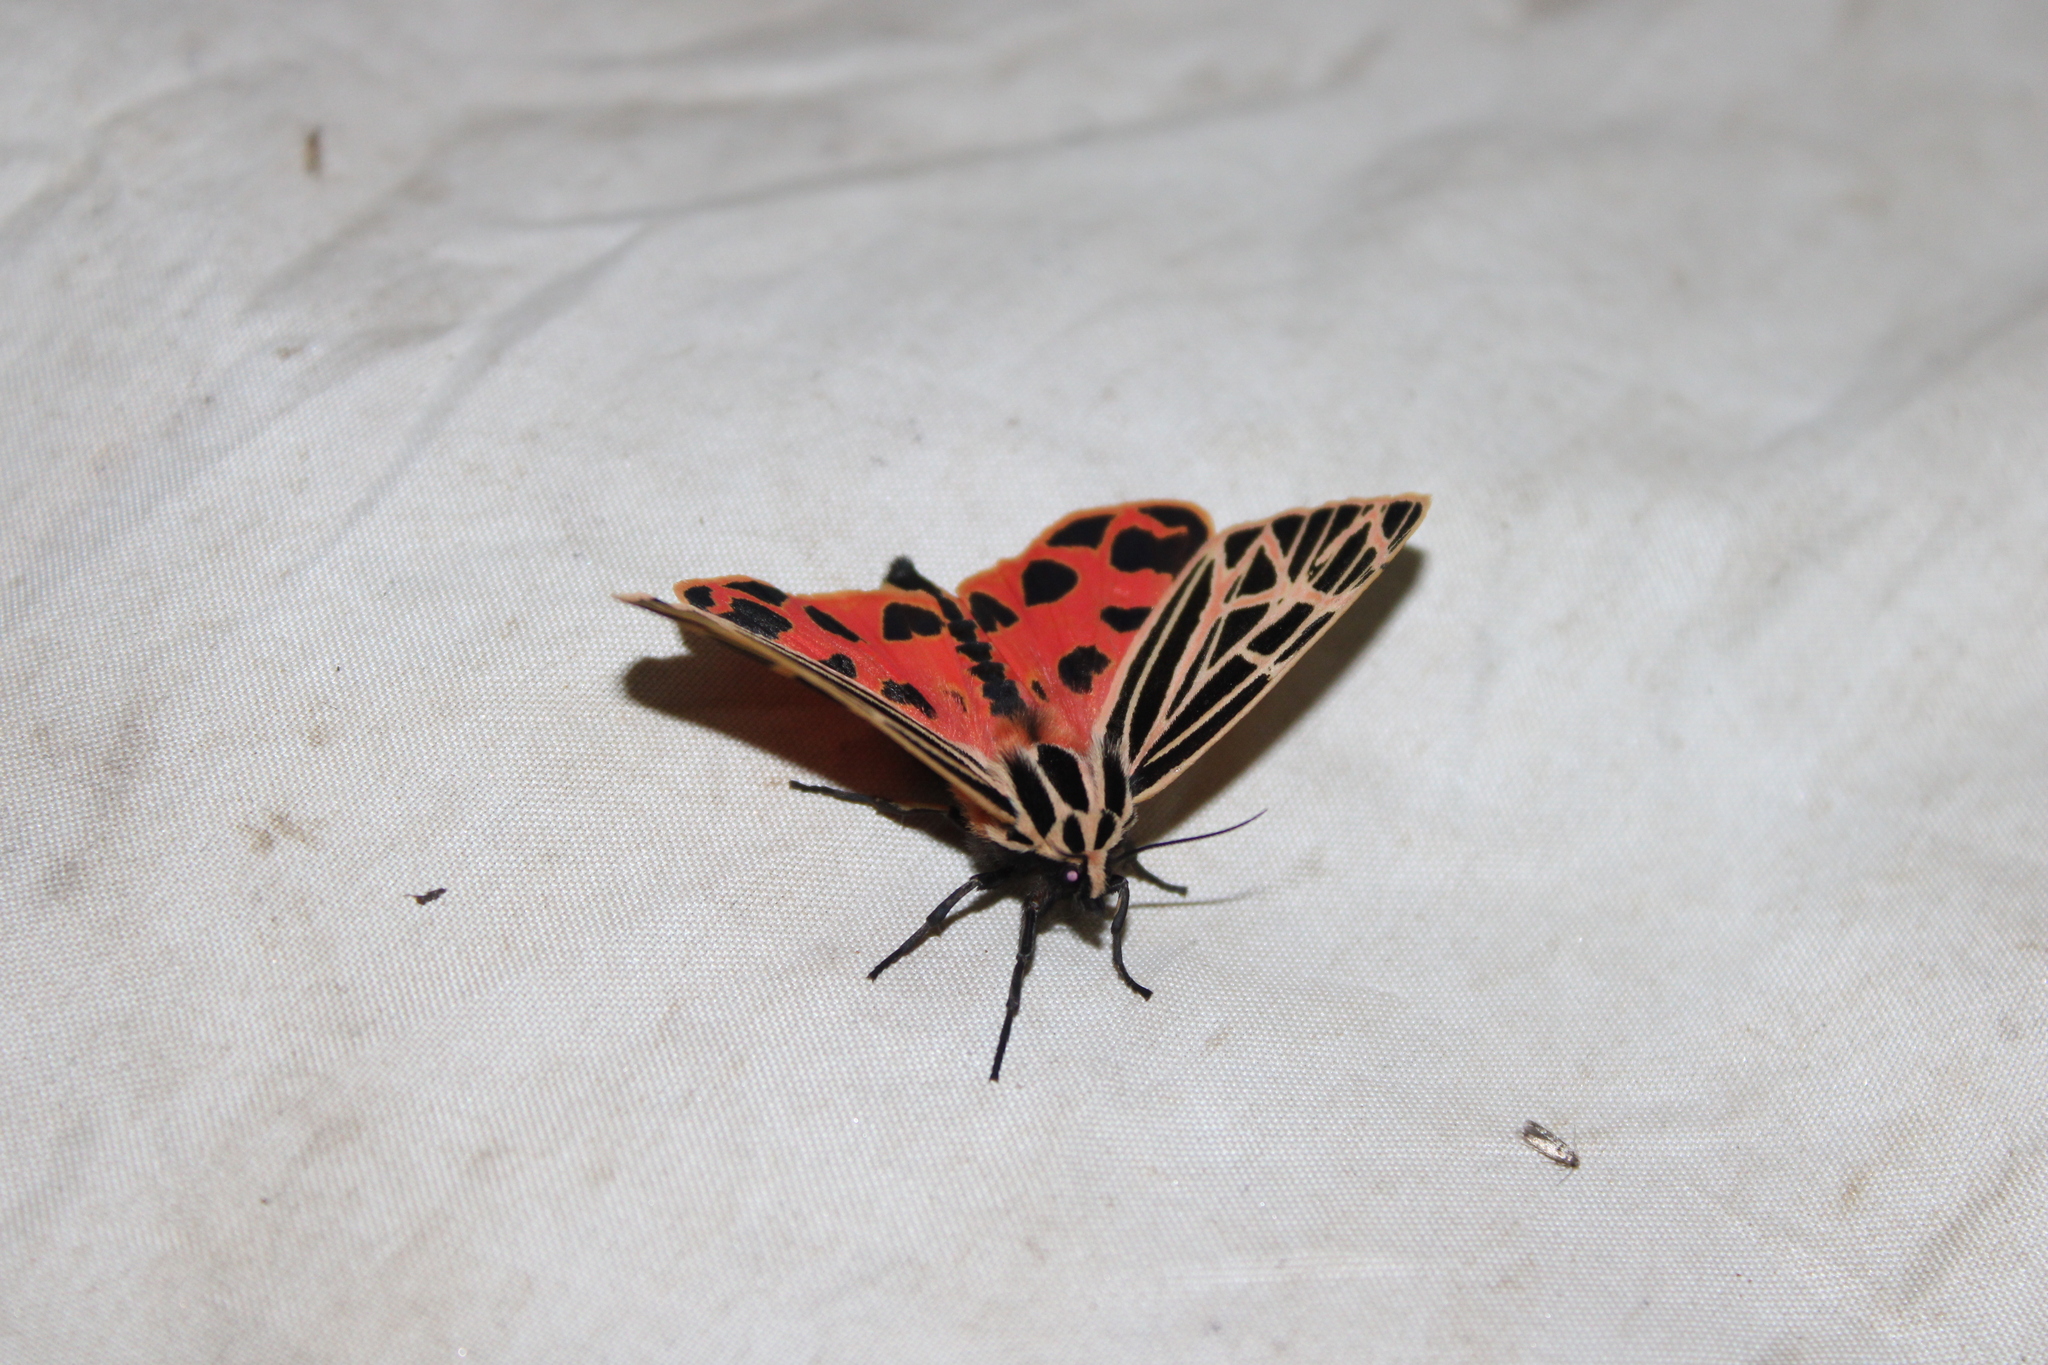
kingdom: Animalia
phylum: Arthropoda
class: Insecta
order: Lepidoptera
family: Erebidae
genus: Grammia
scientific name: Grammia virgo
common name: Virgin tiger moth
